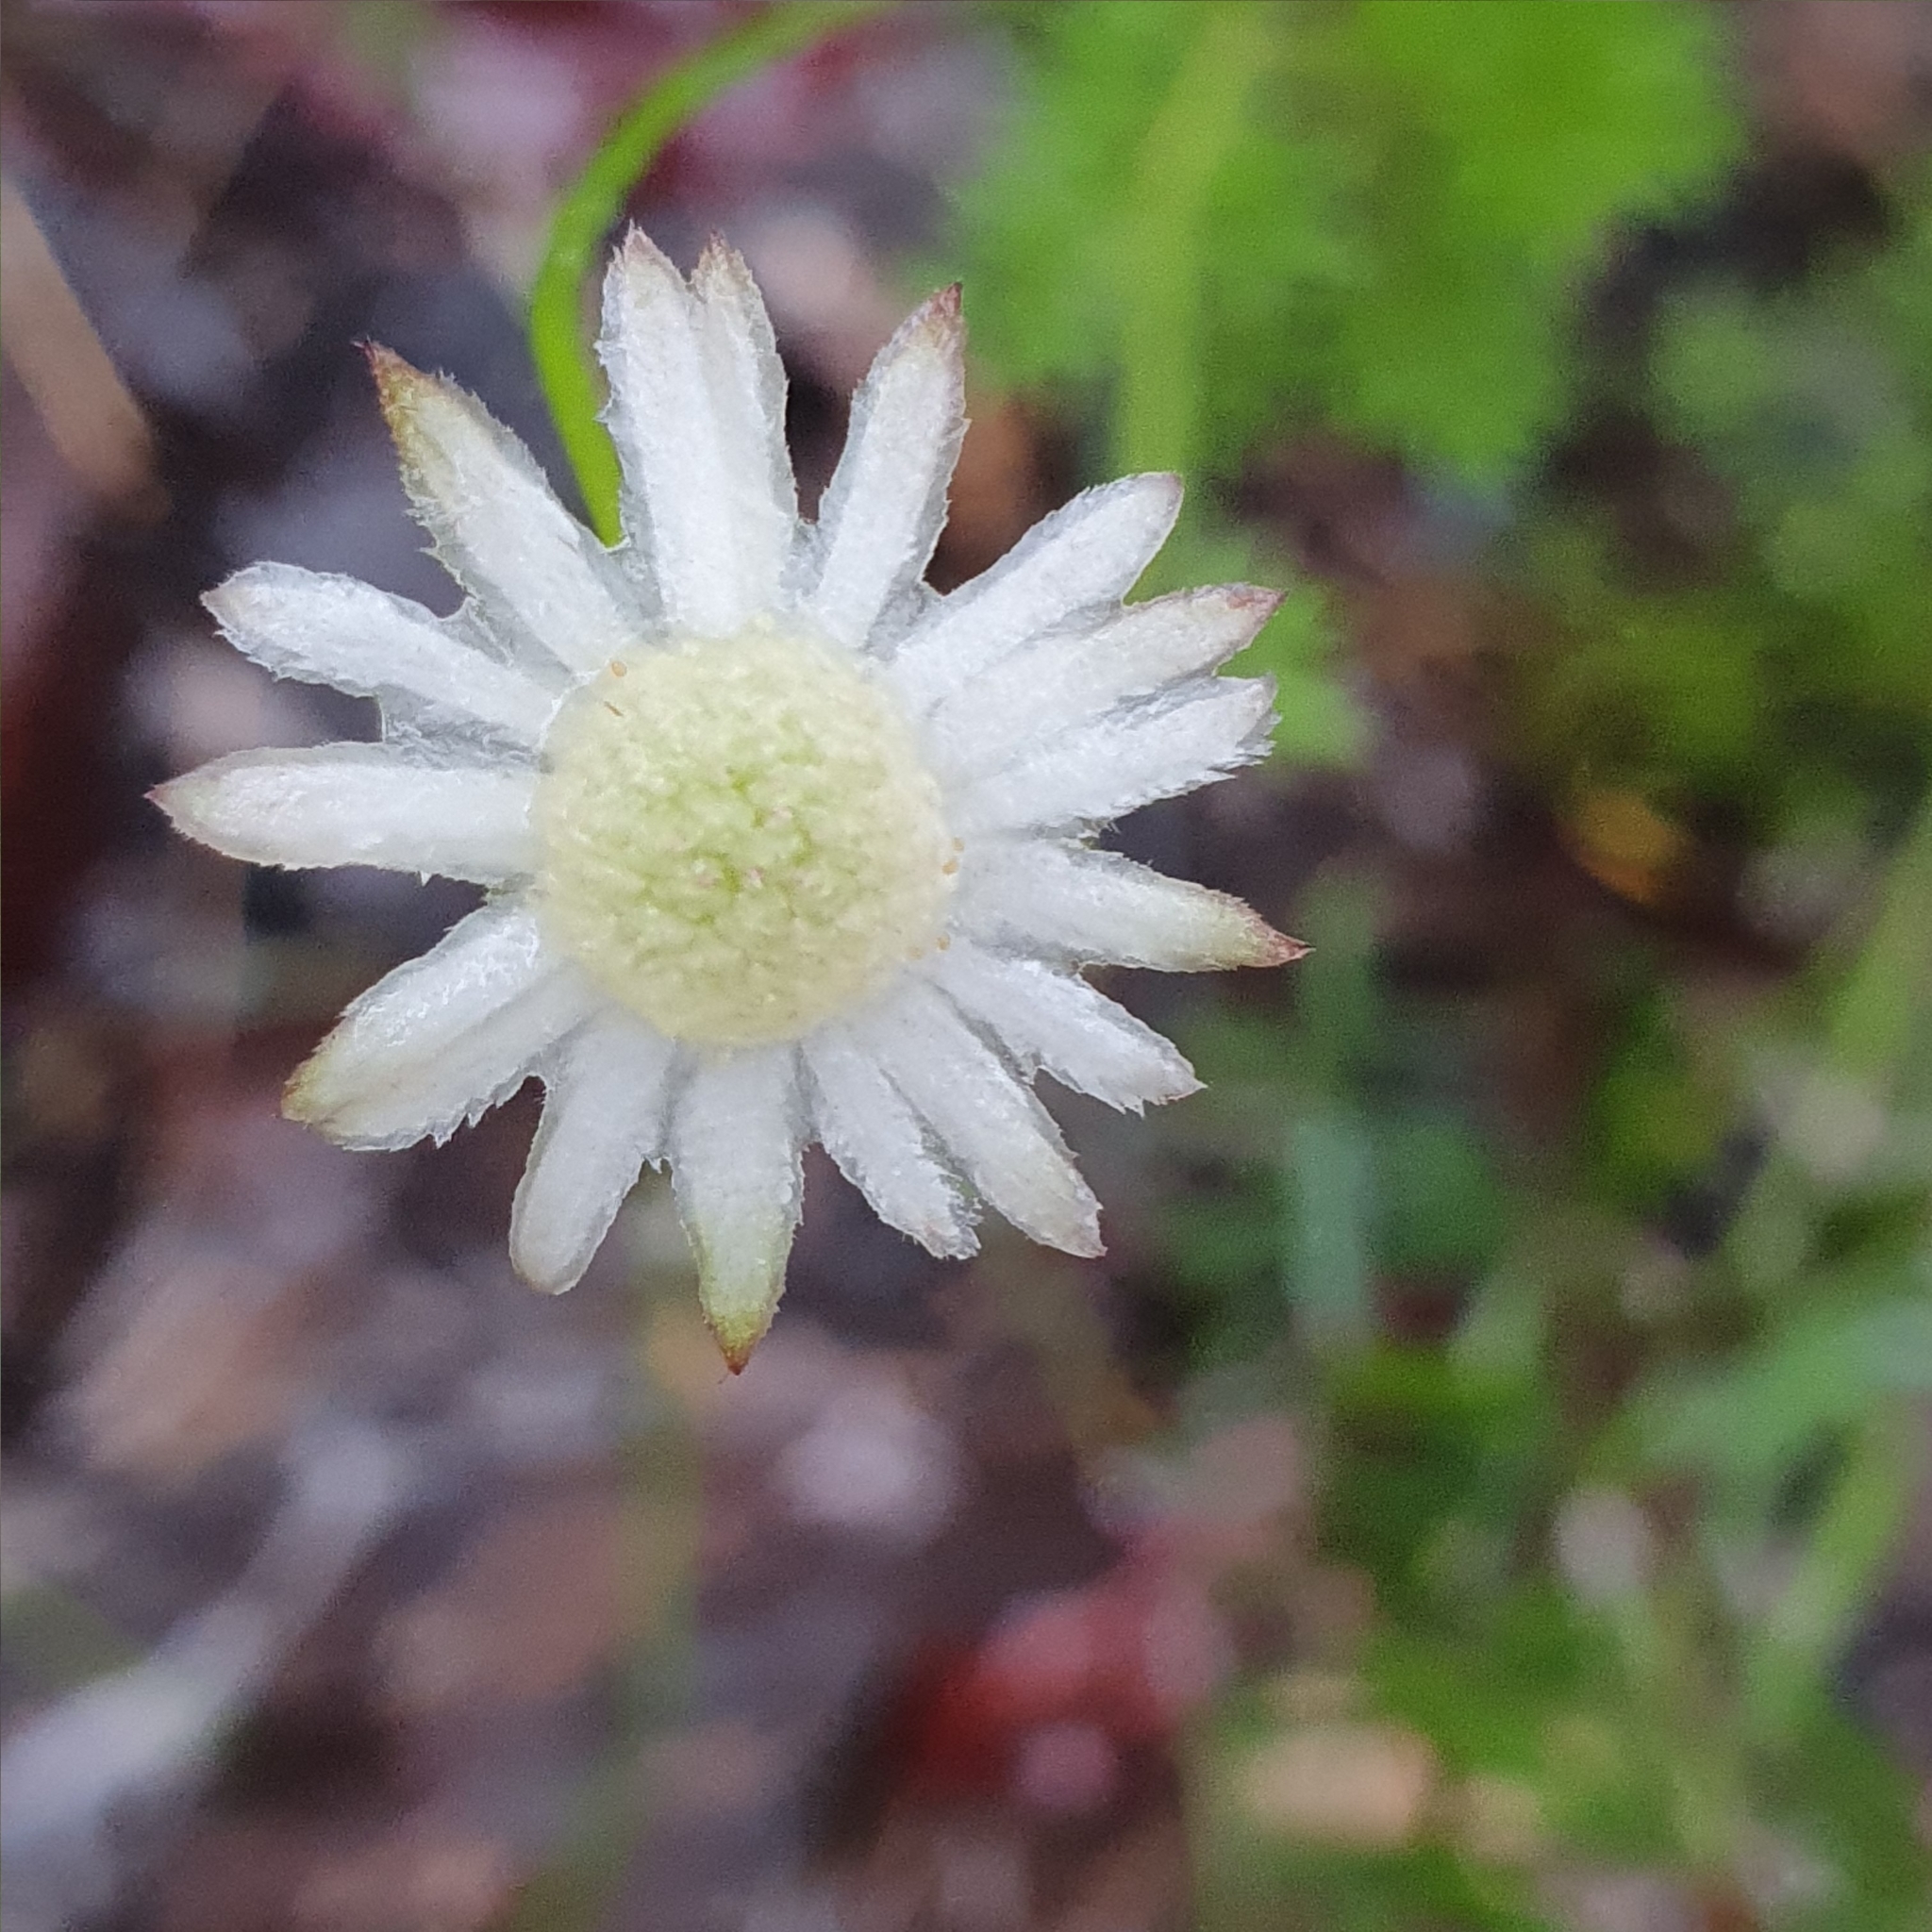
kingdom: Plantae
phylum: Tracheophyta
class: Magnoliopsida
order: Apiales
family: Apiaceae
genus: Actinotus
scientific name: Actinotus minor
